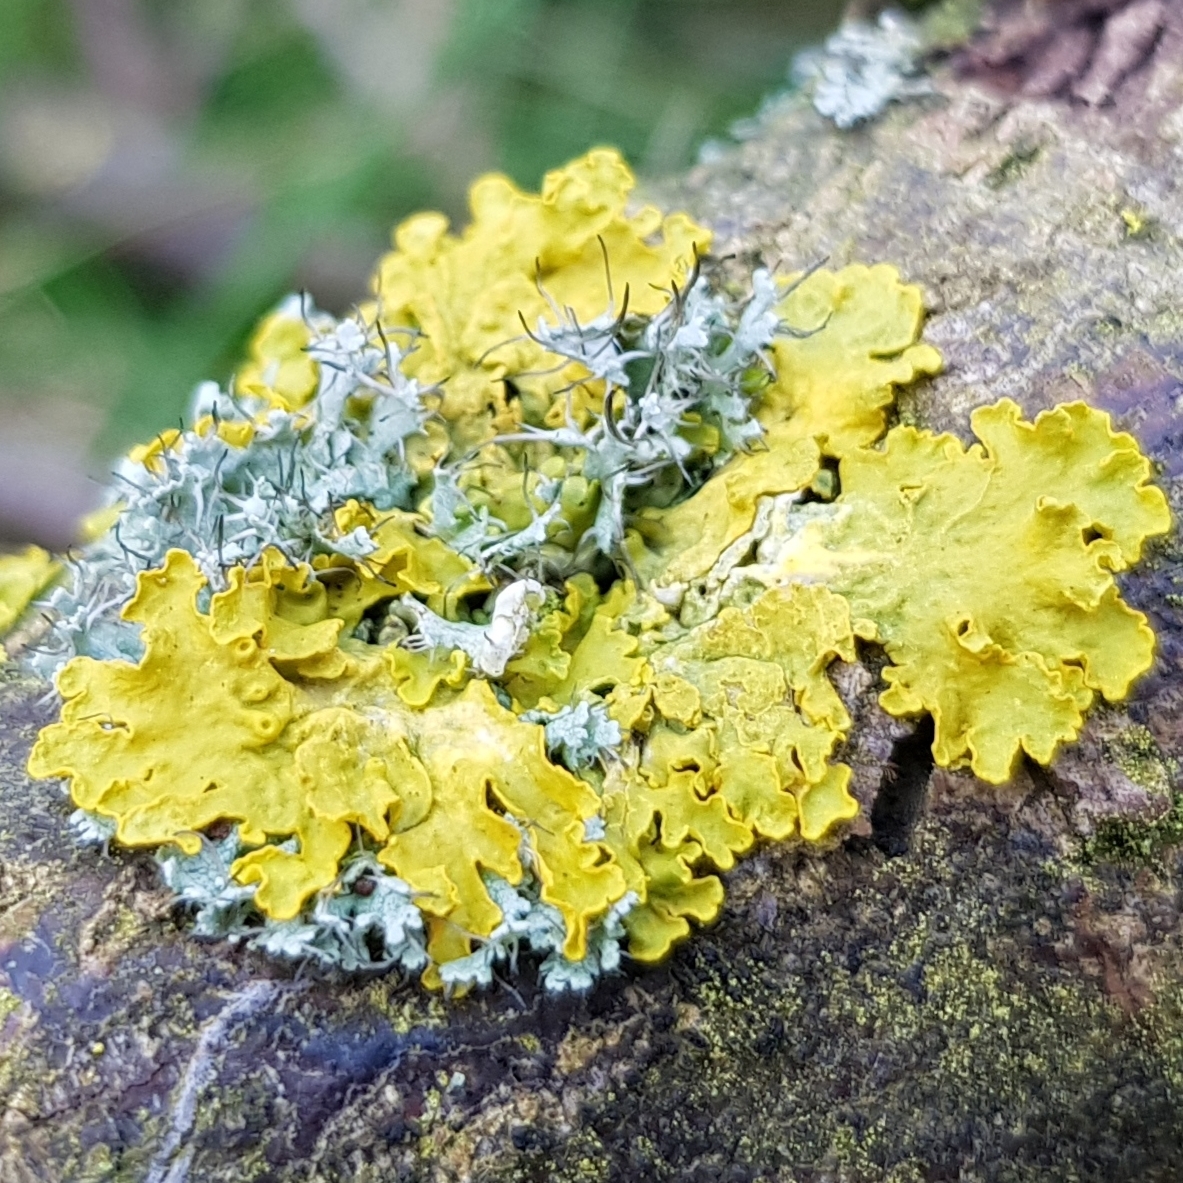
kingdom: Fungi
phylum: Ascomycota
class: Lecanoromycetes
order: Teloschistales
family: Teloschistaceae
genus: Xanthoria
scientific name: Xanthoria parietina
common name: Common orange lichen
